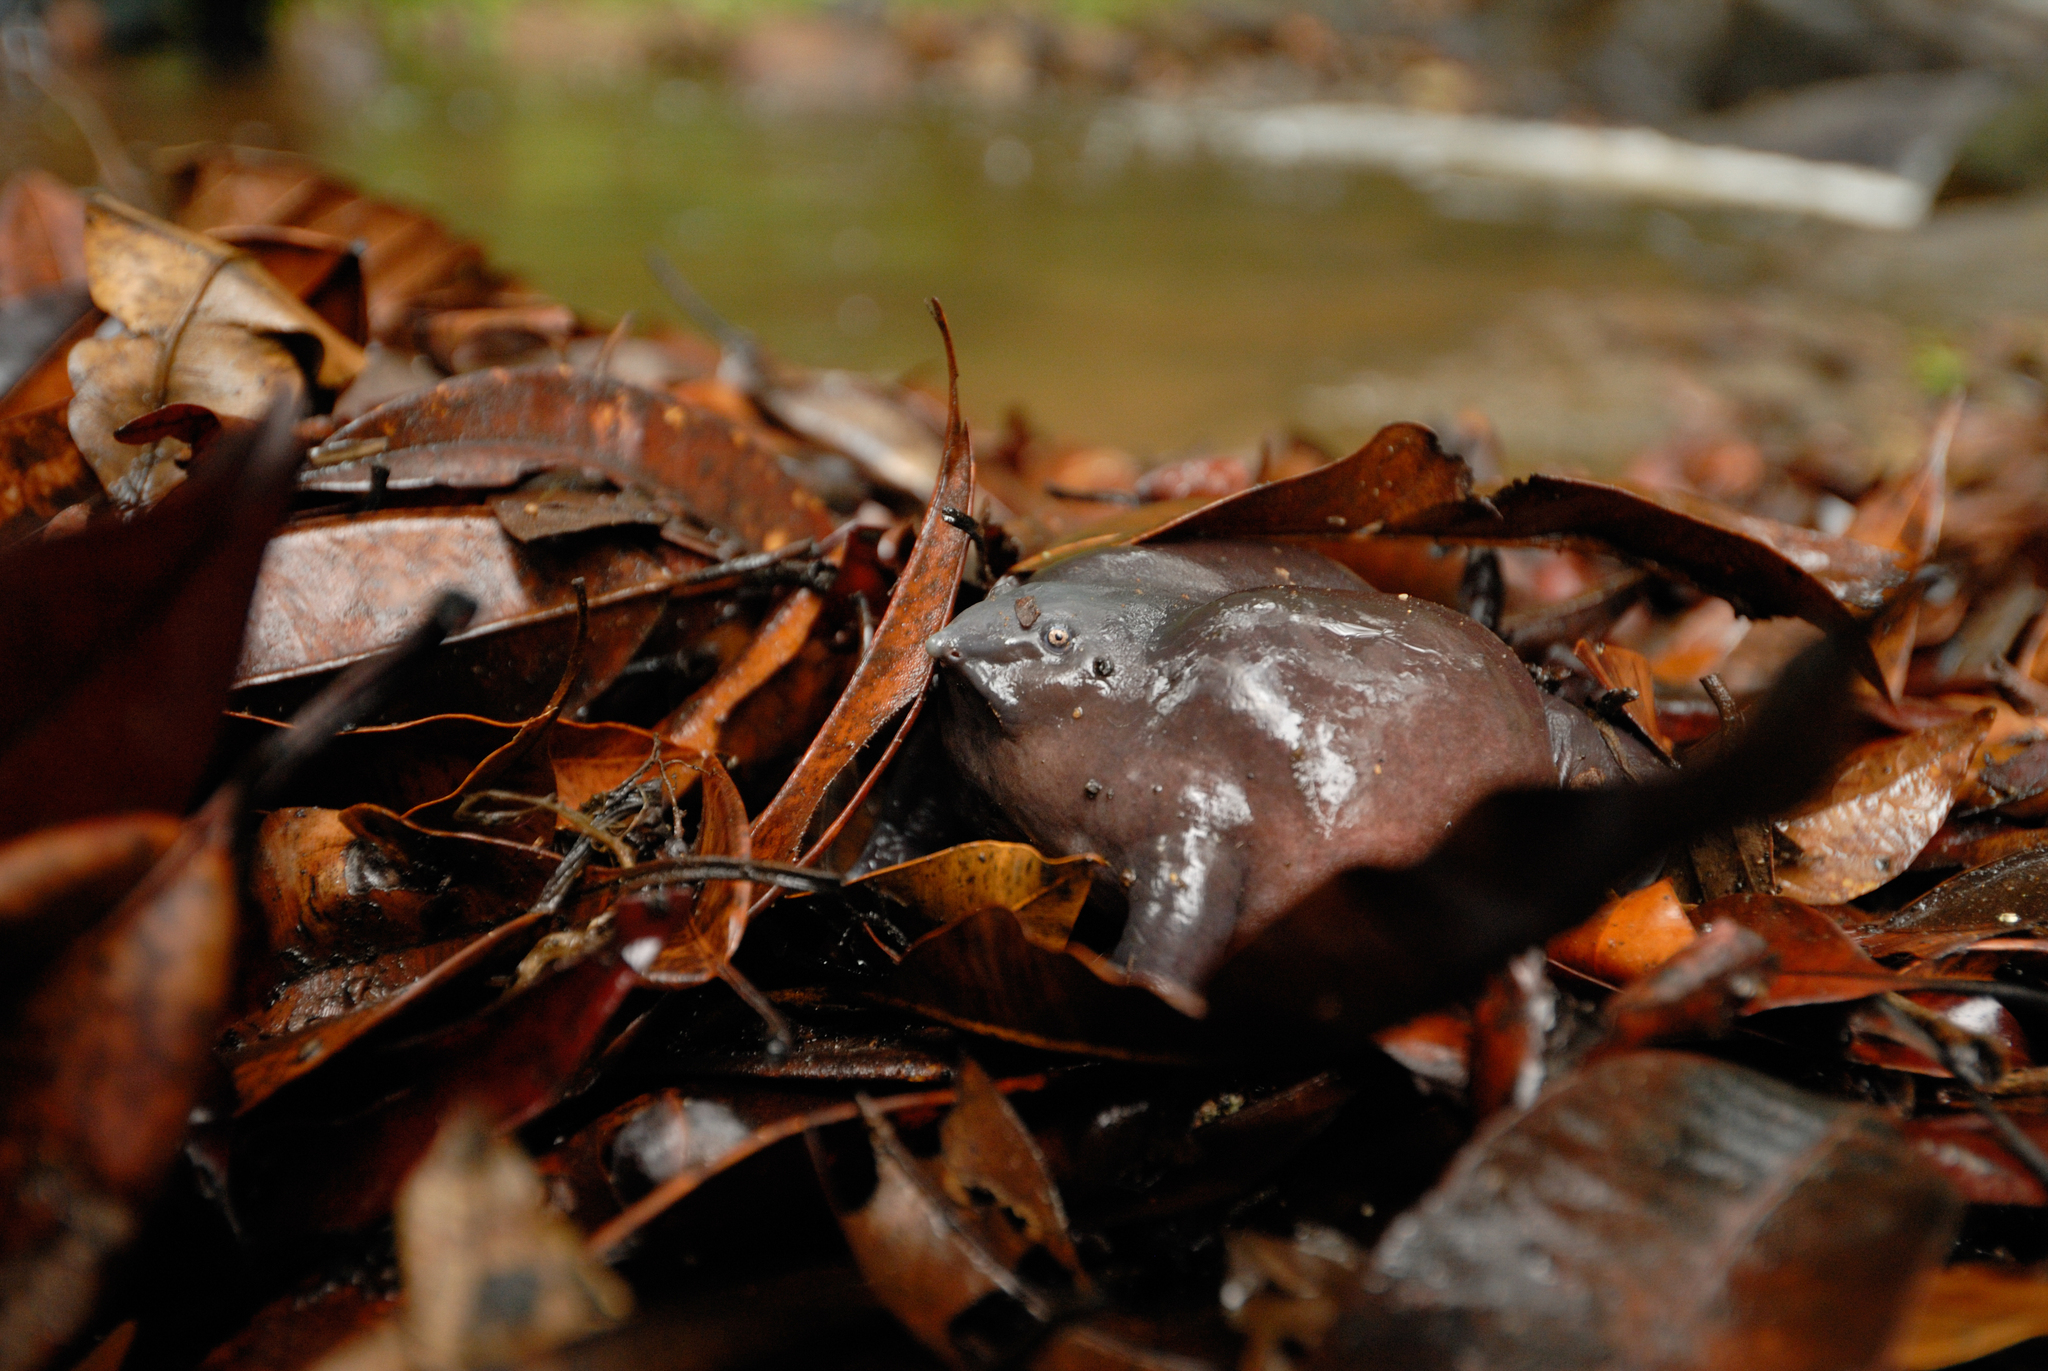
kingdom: Animalia
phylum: Chordata
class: Amphibia
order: Anura
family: Nasikabatrachidae
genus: Nasikabatrachus
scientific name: Nasikabatrachus sahyadrensis
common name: Purple frog
